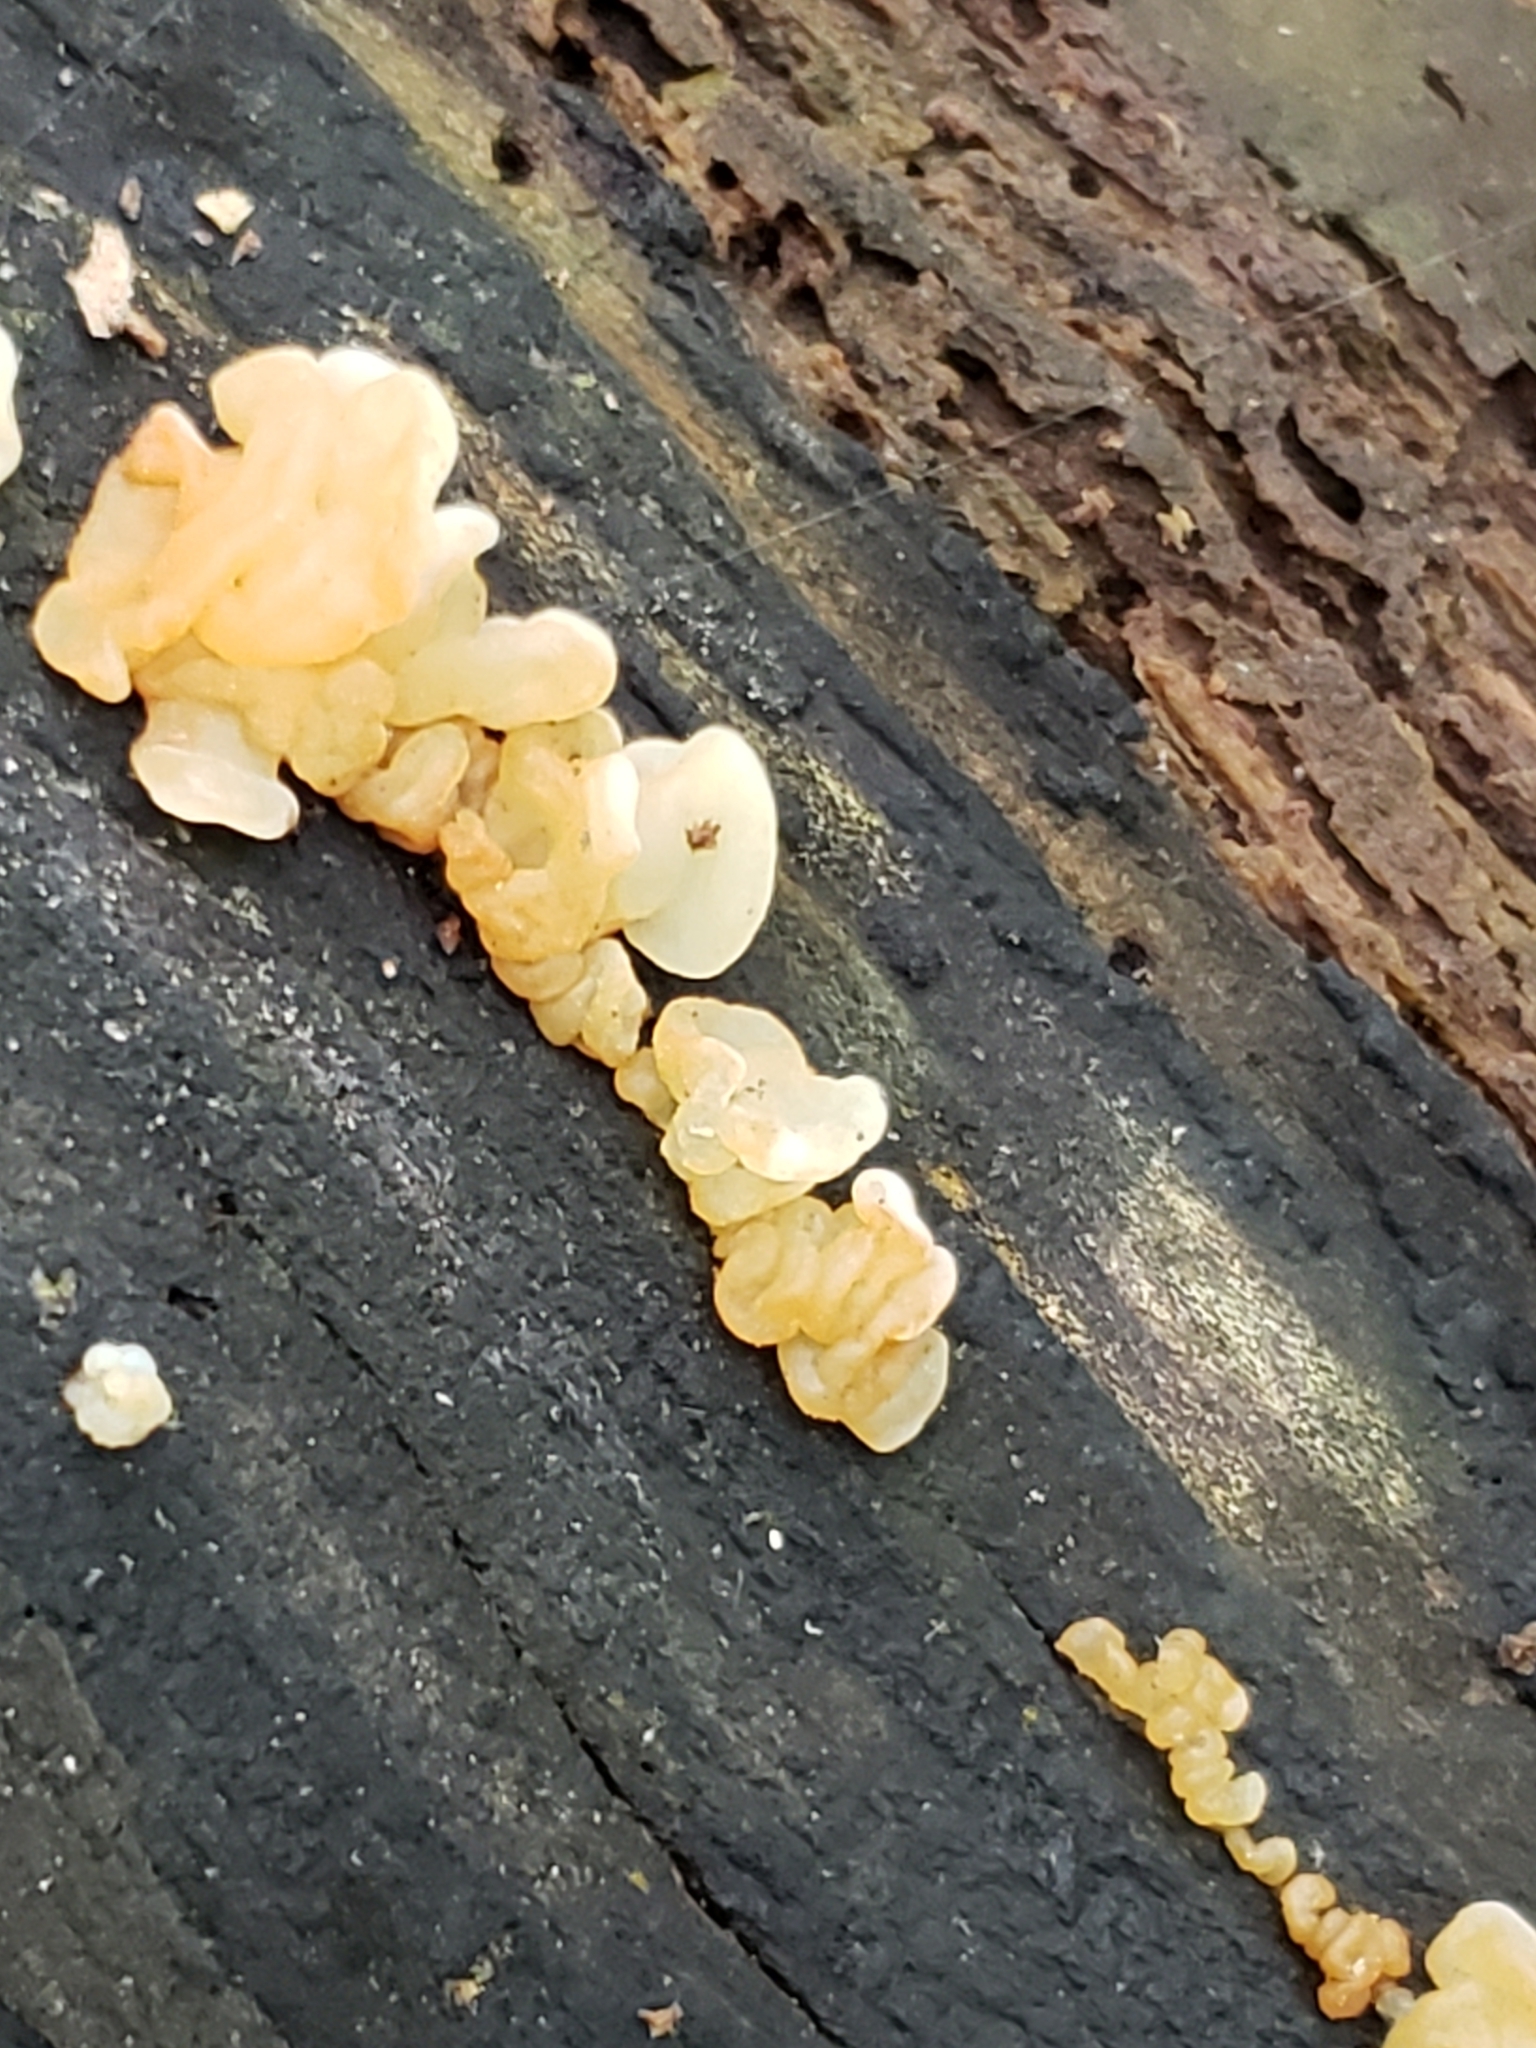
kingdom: Fungi
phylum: Basidiomycota
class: Agaricomycetes
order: Auriculariales
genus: Ductifera
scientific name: Ductifera pululahuana
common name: White jelly fungus
